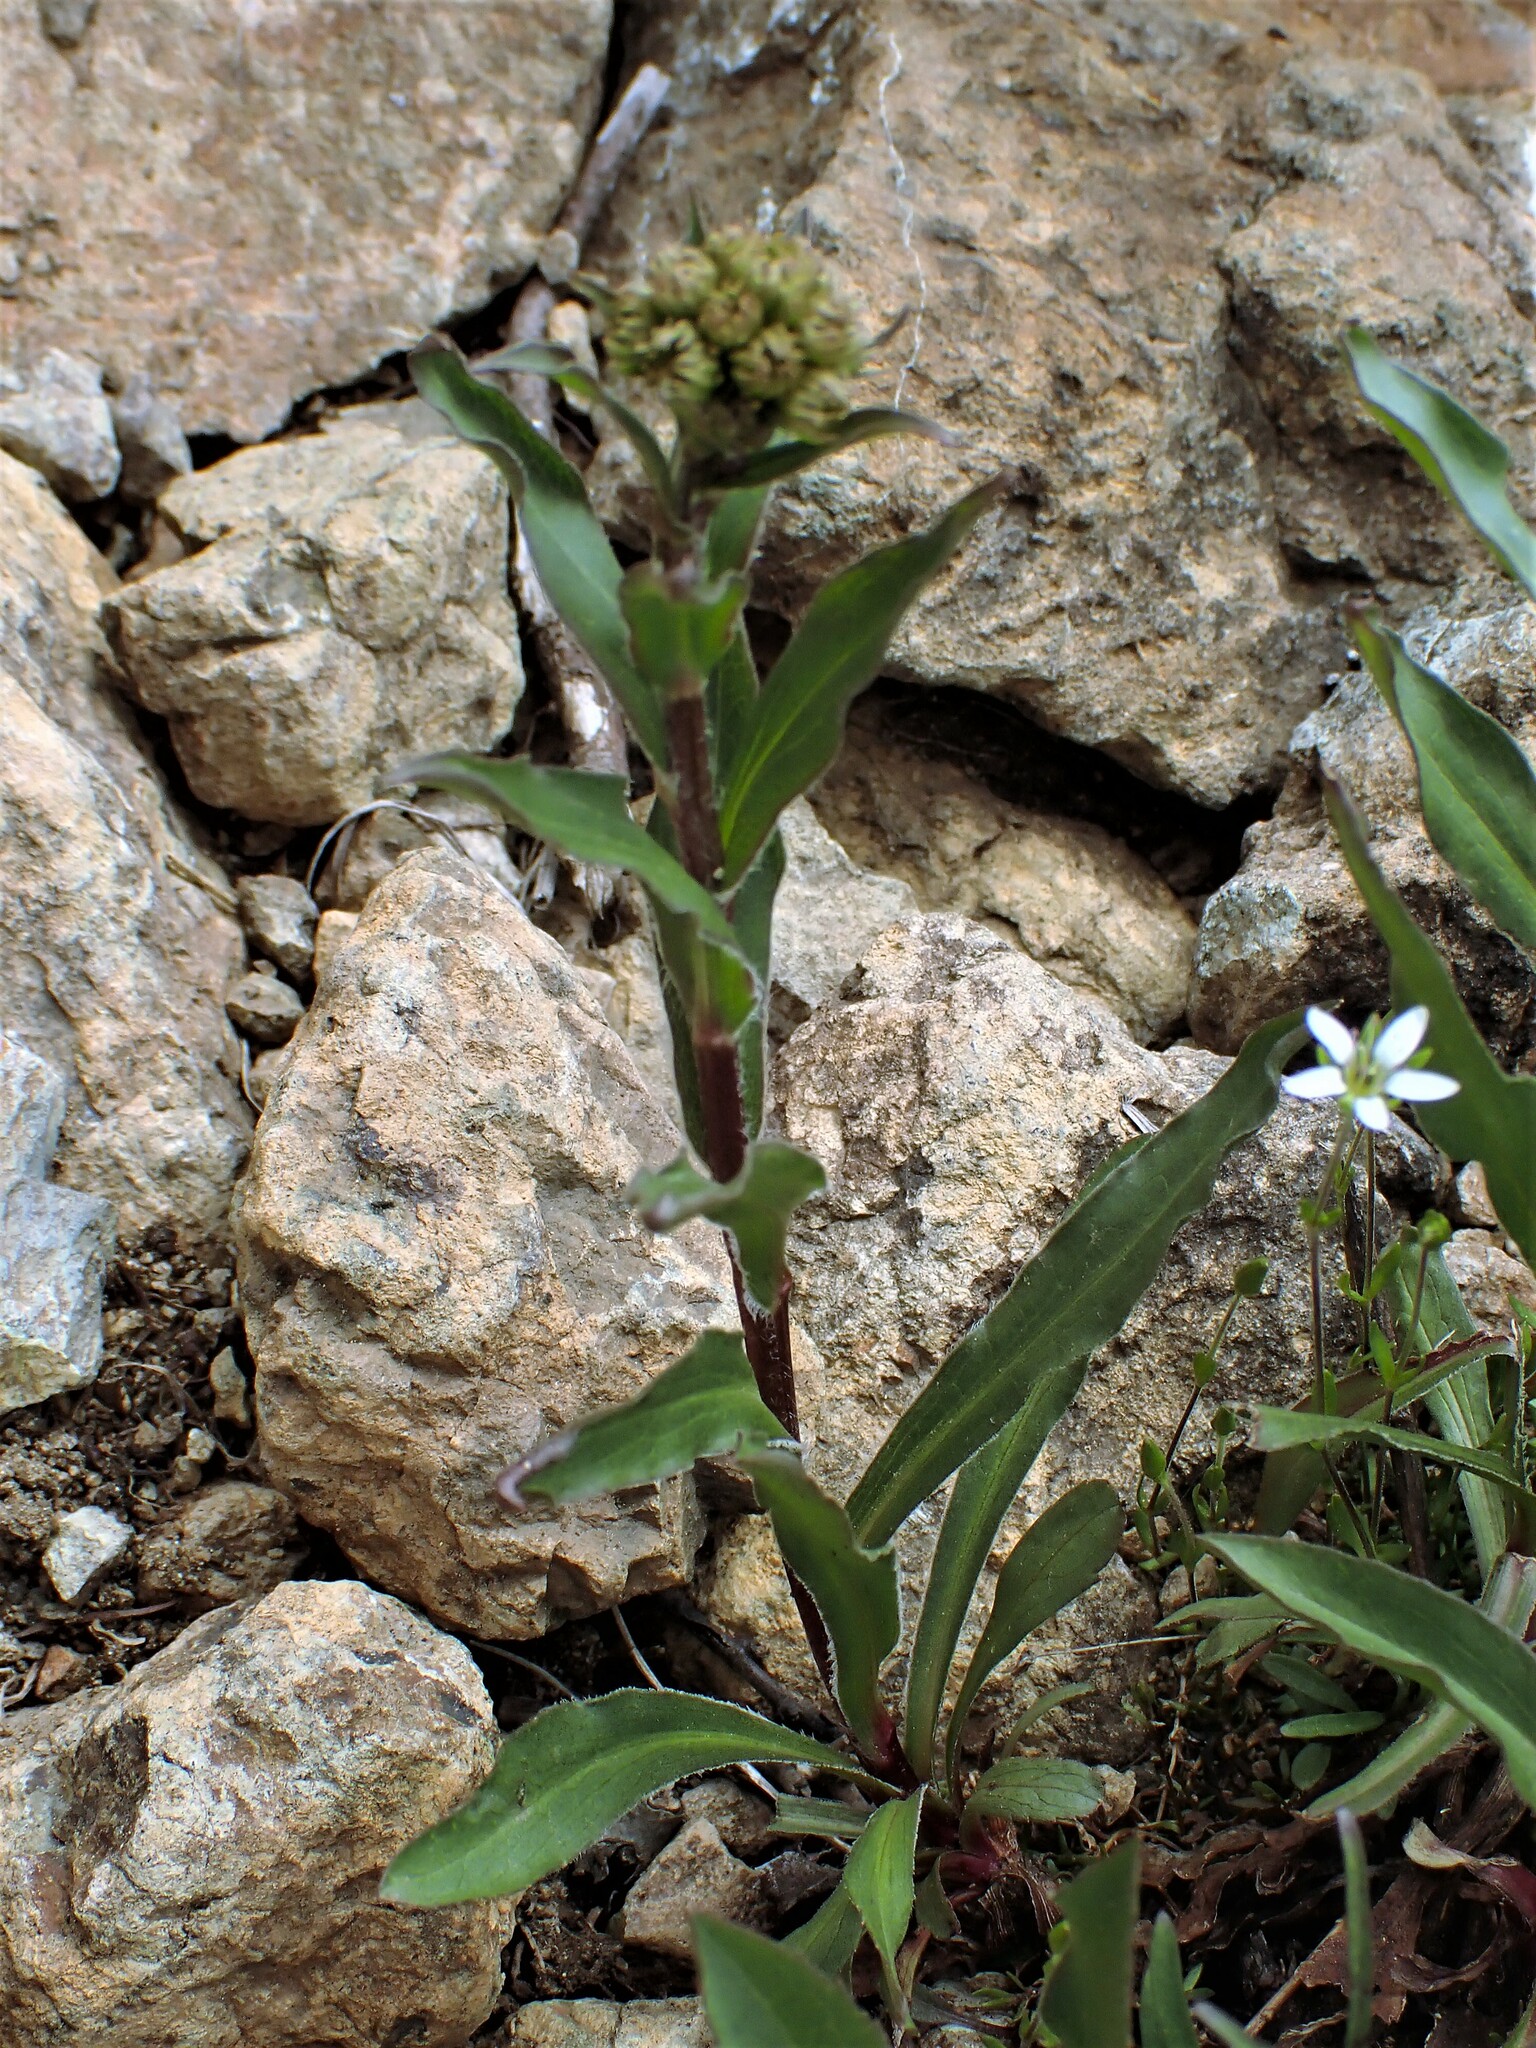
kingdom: Plantae
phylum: Tracheophyta
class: Magnoliopsida
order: Asterales
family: Asteraceae
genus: Solidago
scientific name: Solidago multiradiata
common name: Northern goldenrod
